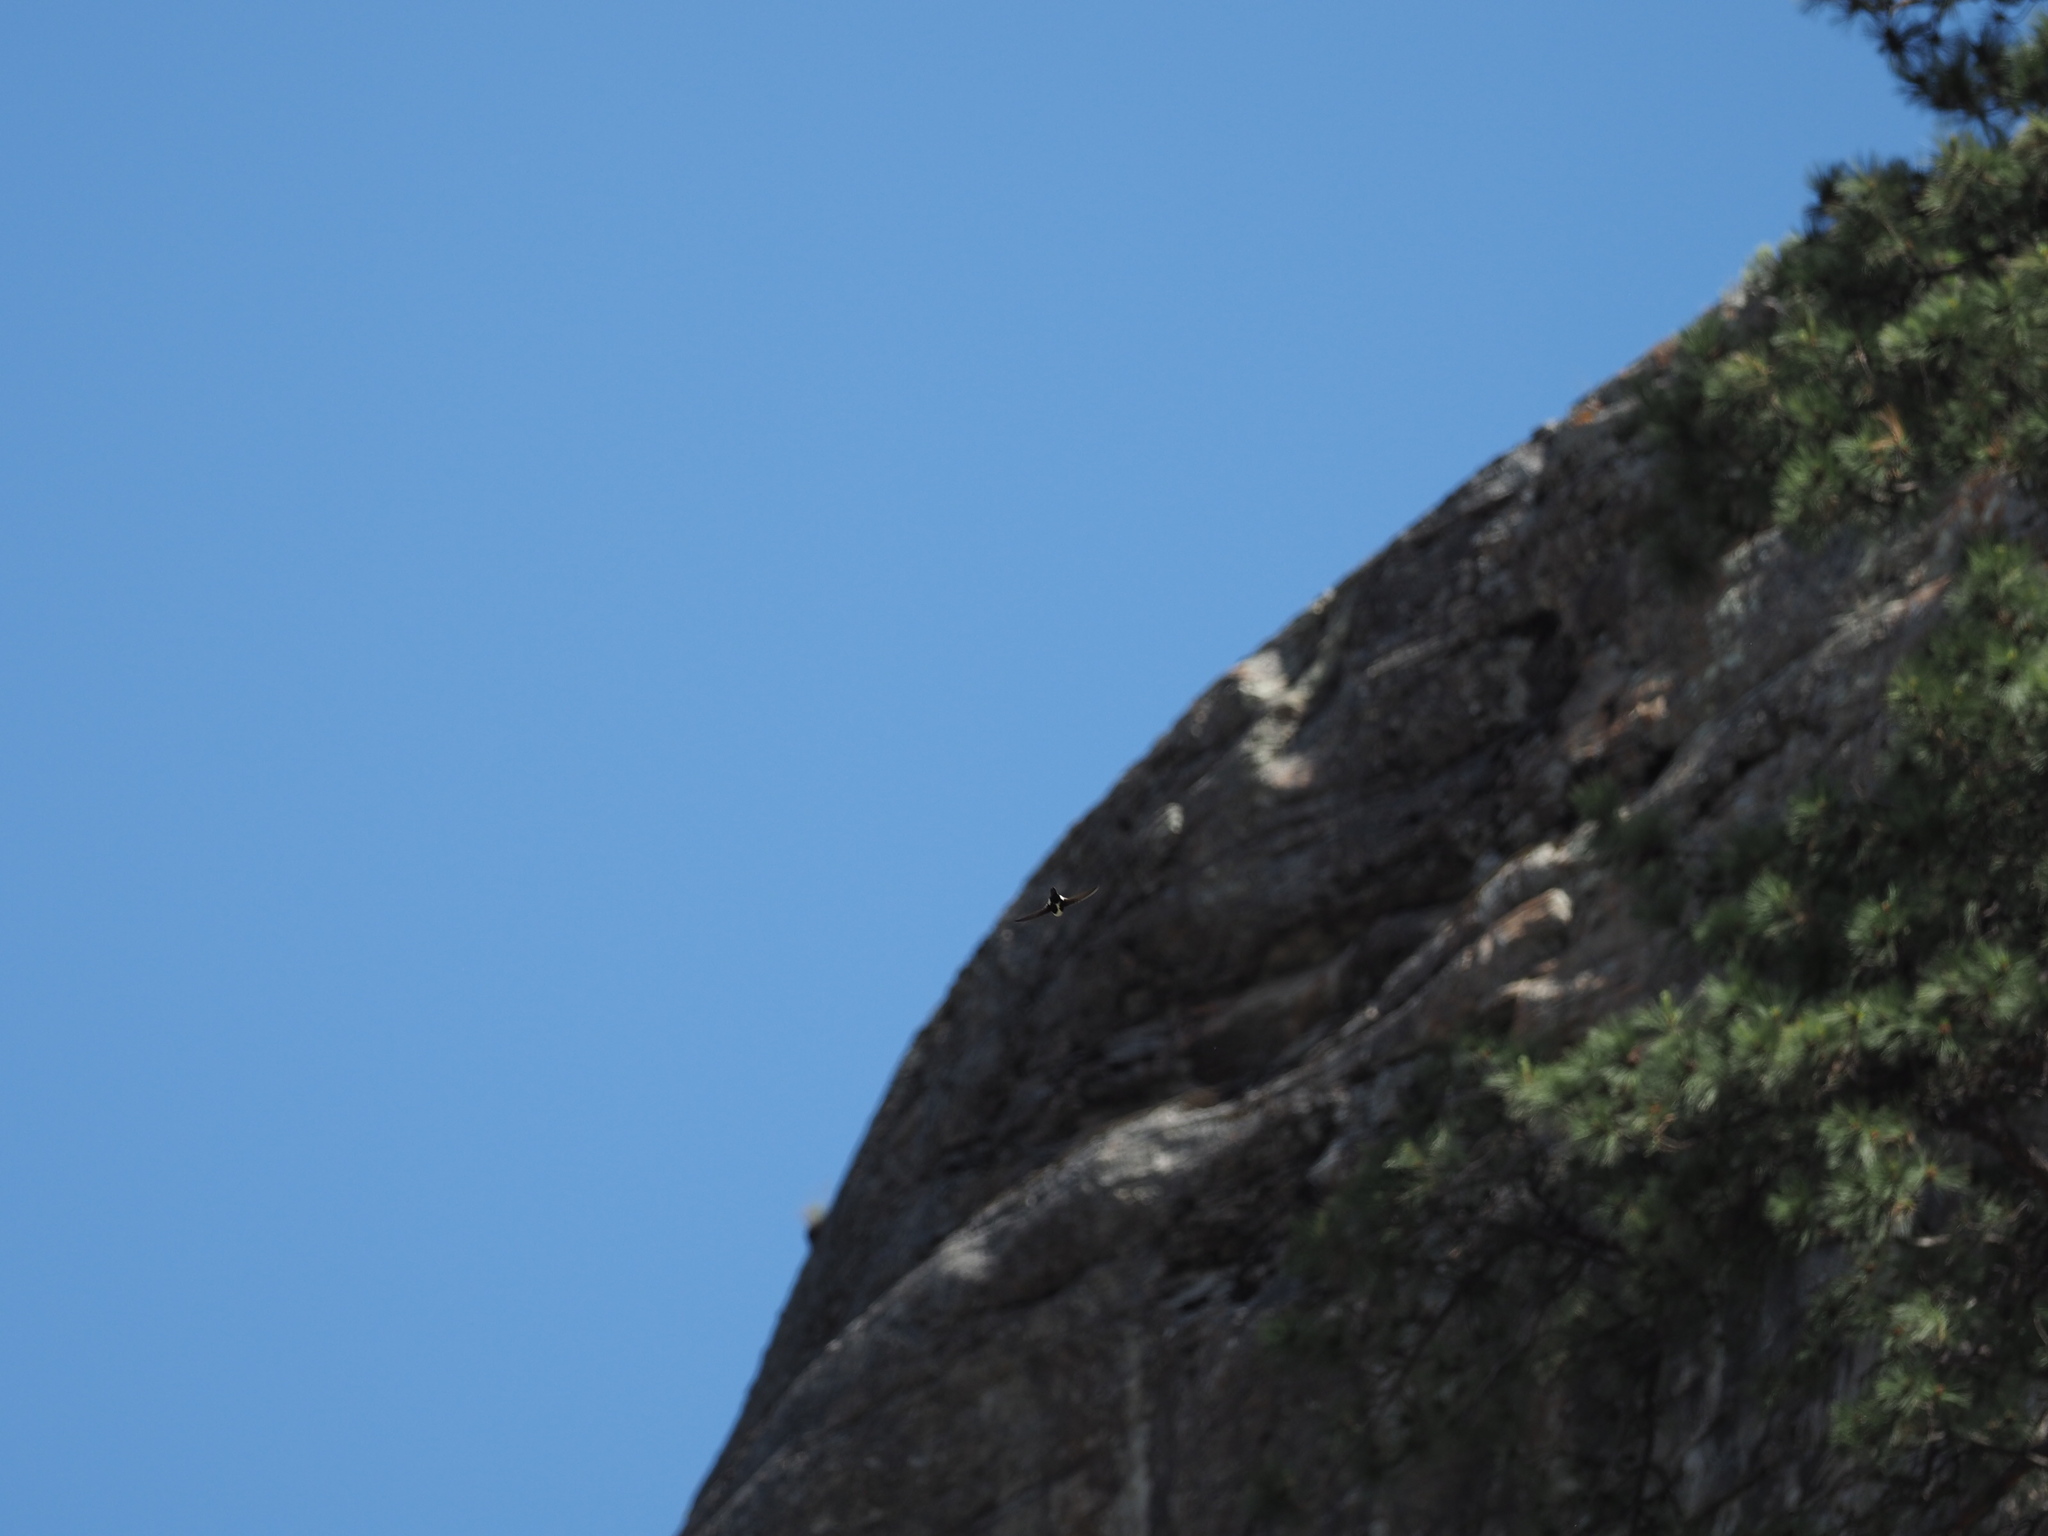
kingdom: Animalia
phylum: Chordata
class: Aves
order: Apodiformes
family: Apodidae
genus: Aeronautes
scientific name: Aeronautes saxatalis
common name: White-throated swift
